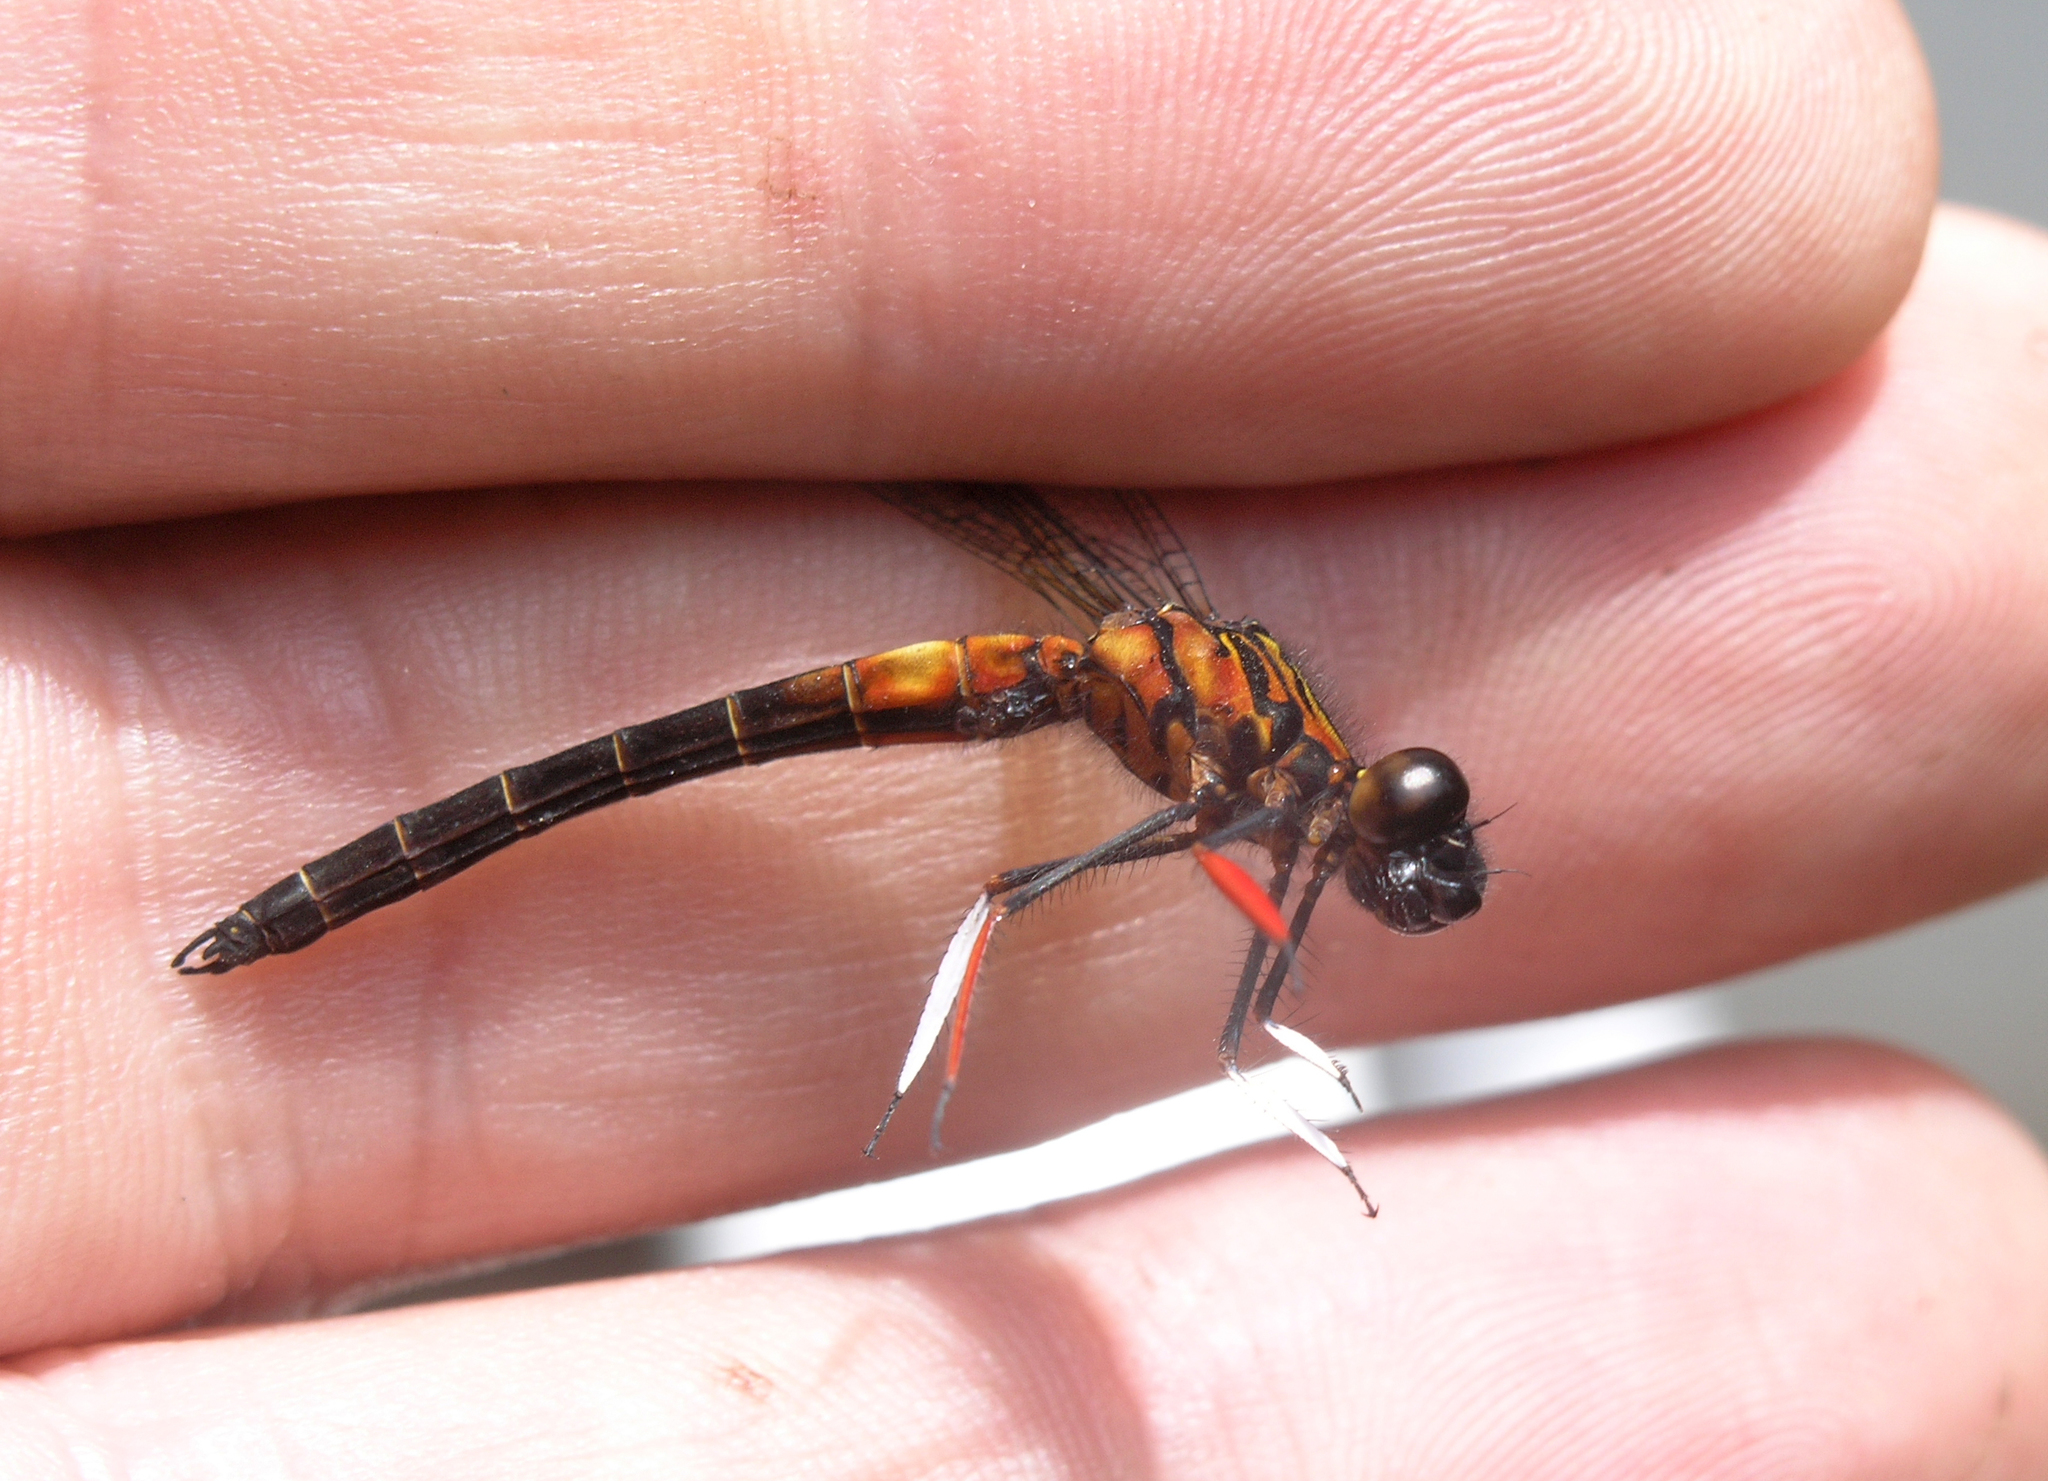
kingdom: Animalia
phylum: Arthropoda
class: Insecta
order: Odonata
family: Chlorocyphidae
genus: Platycypha
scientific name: Platycypha caligata
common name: Dancing jewel
